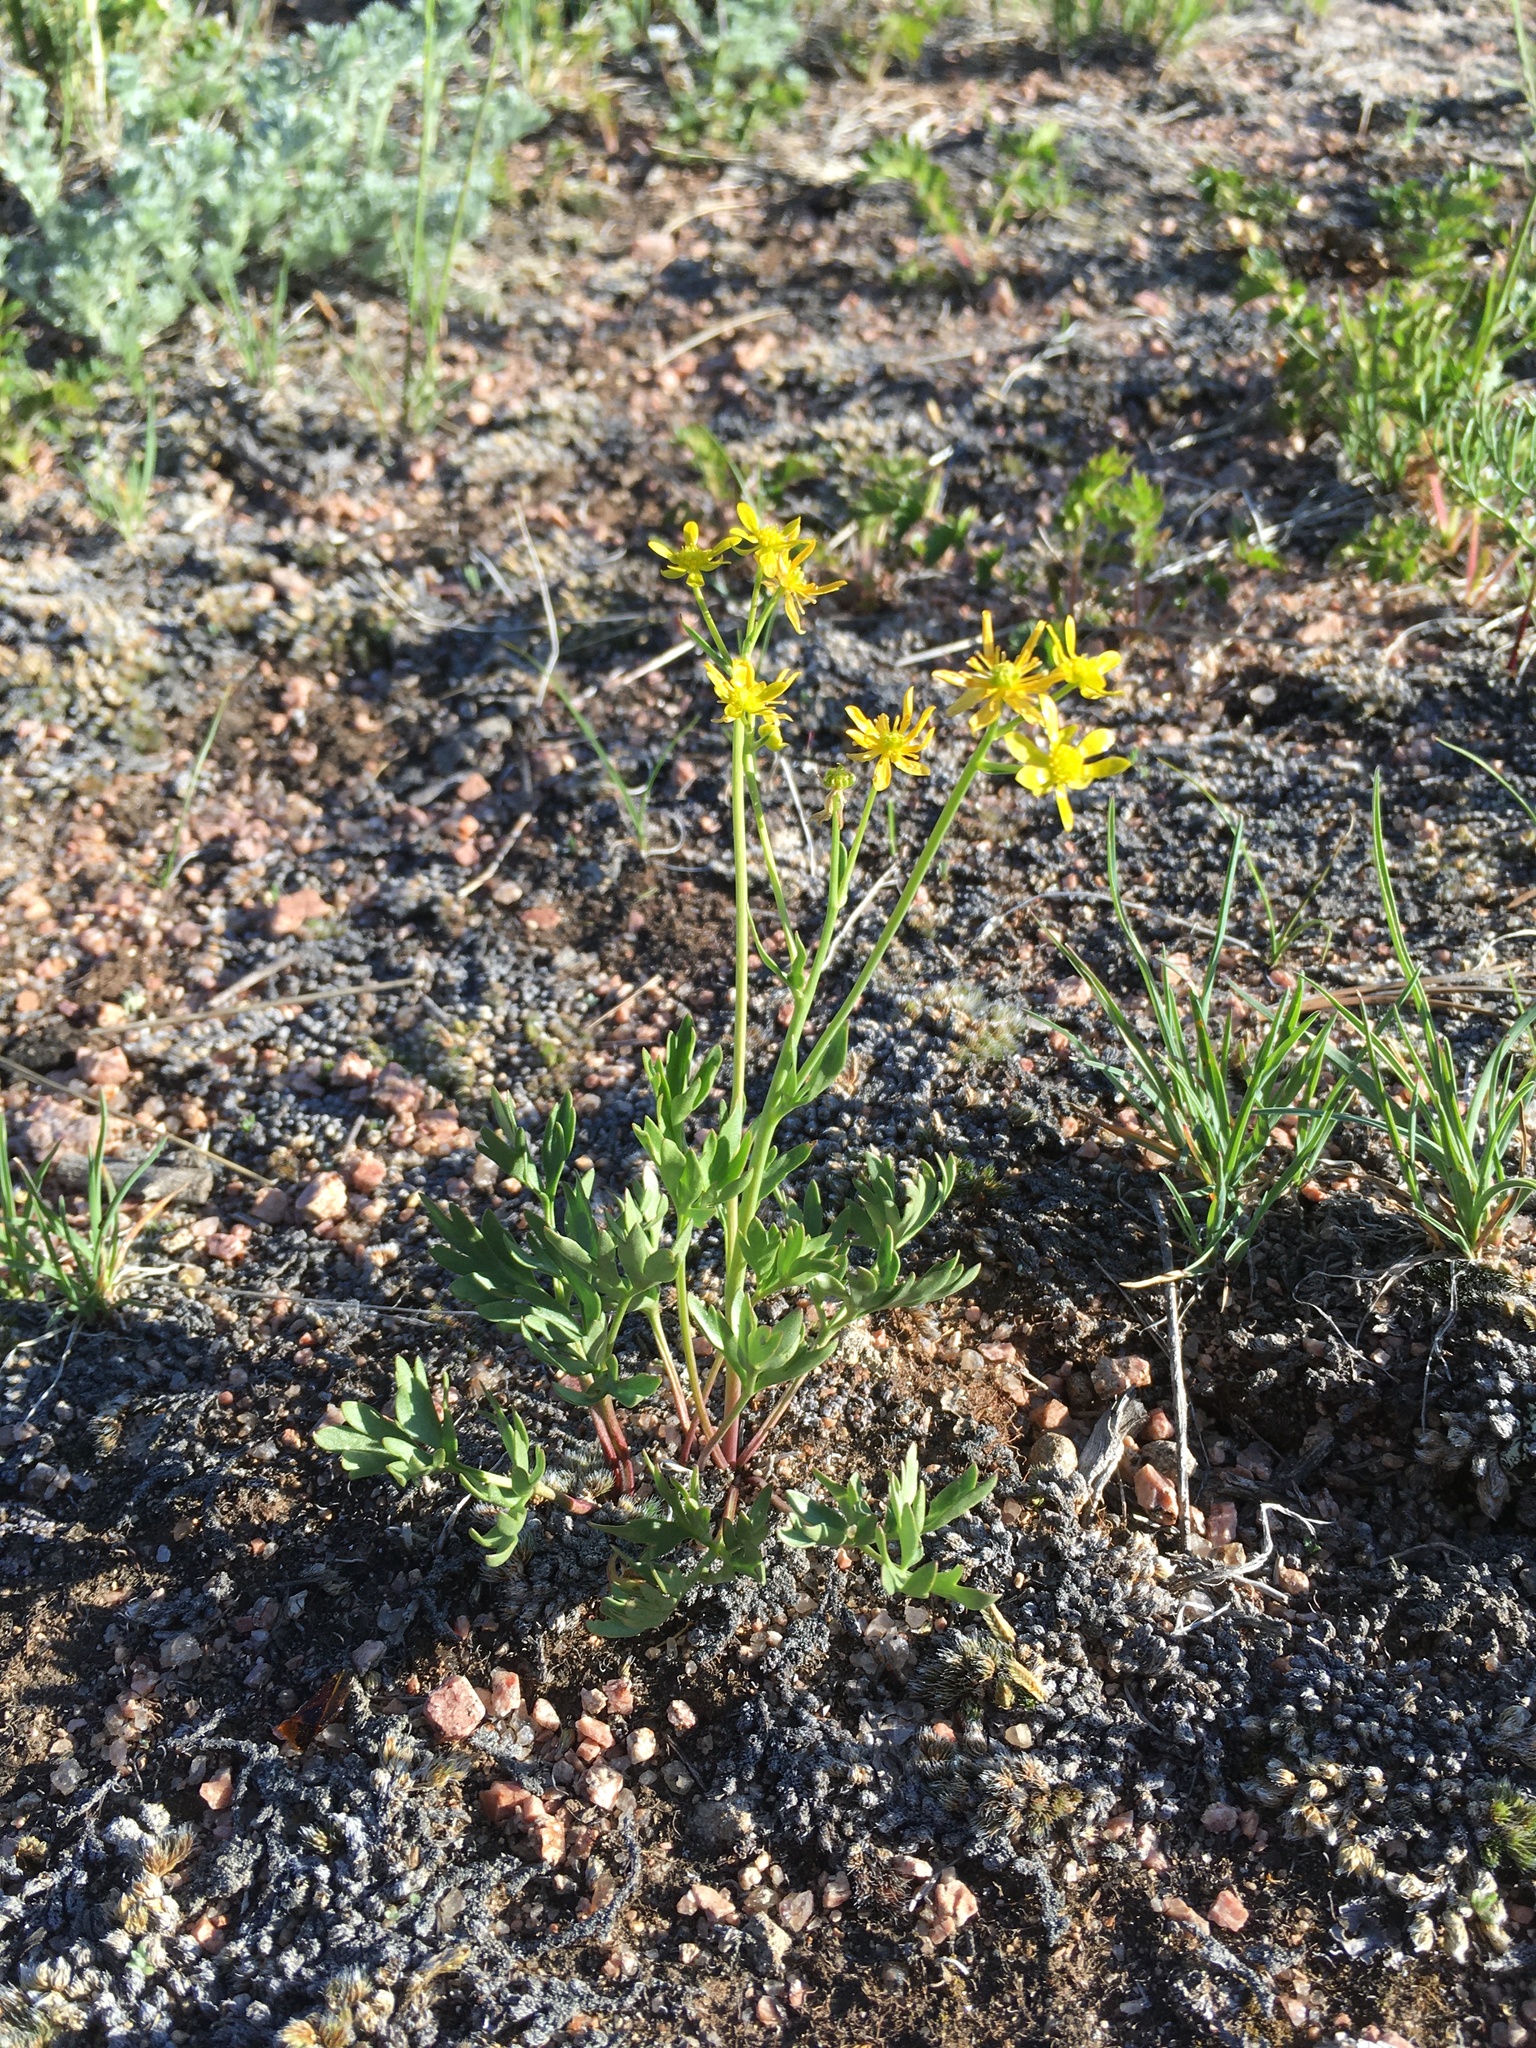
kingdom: Plantae
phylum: Tracheophyta
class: Magnoliopsida
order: Ranunculales
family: Ranunculaceae
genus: Cyrtorhyncha
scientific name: Cyrtorhyncha ranunculina
